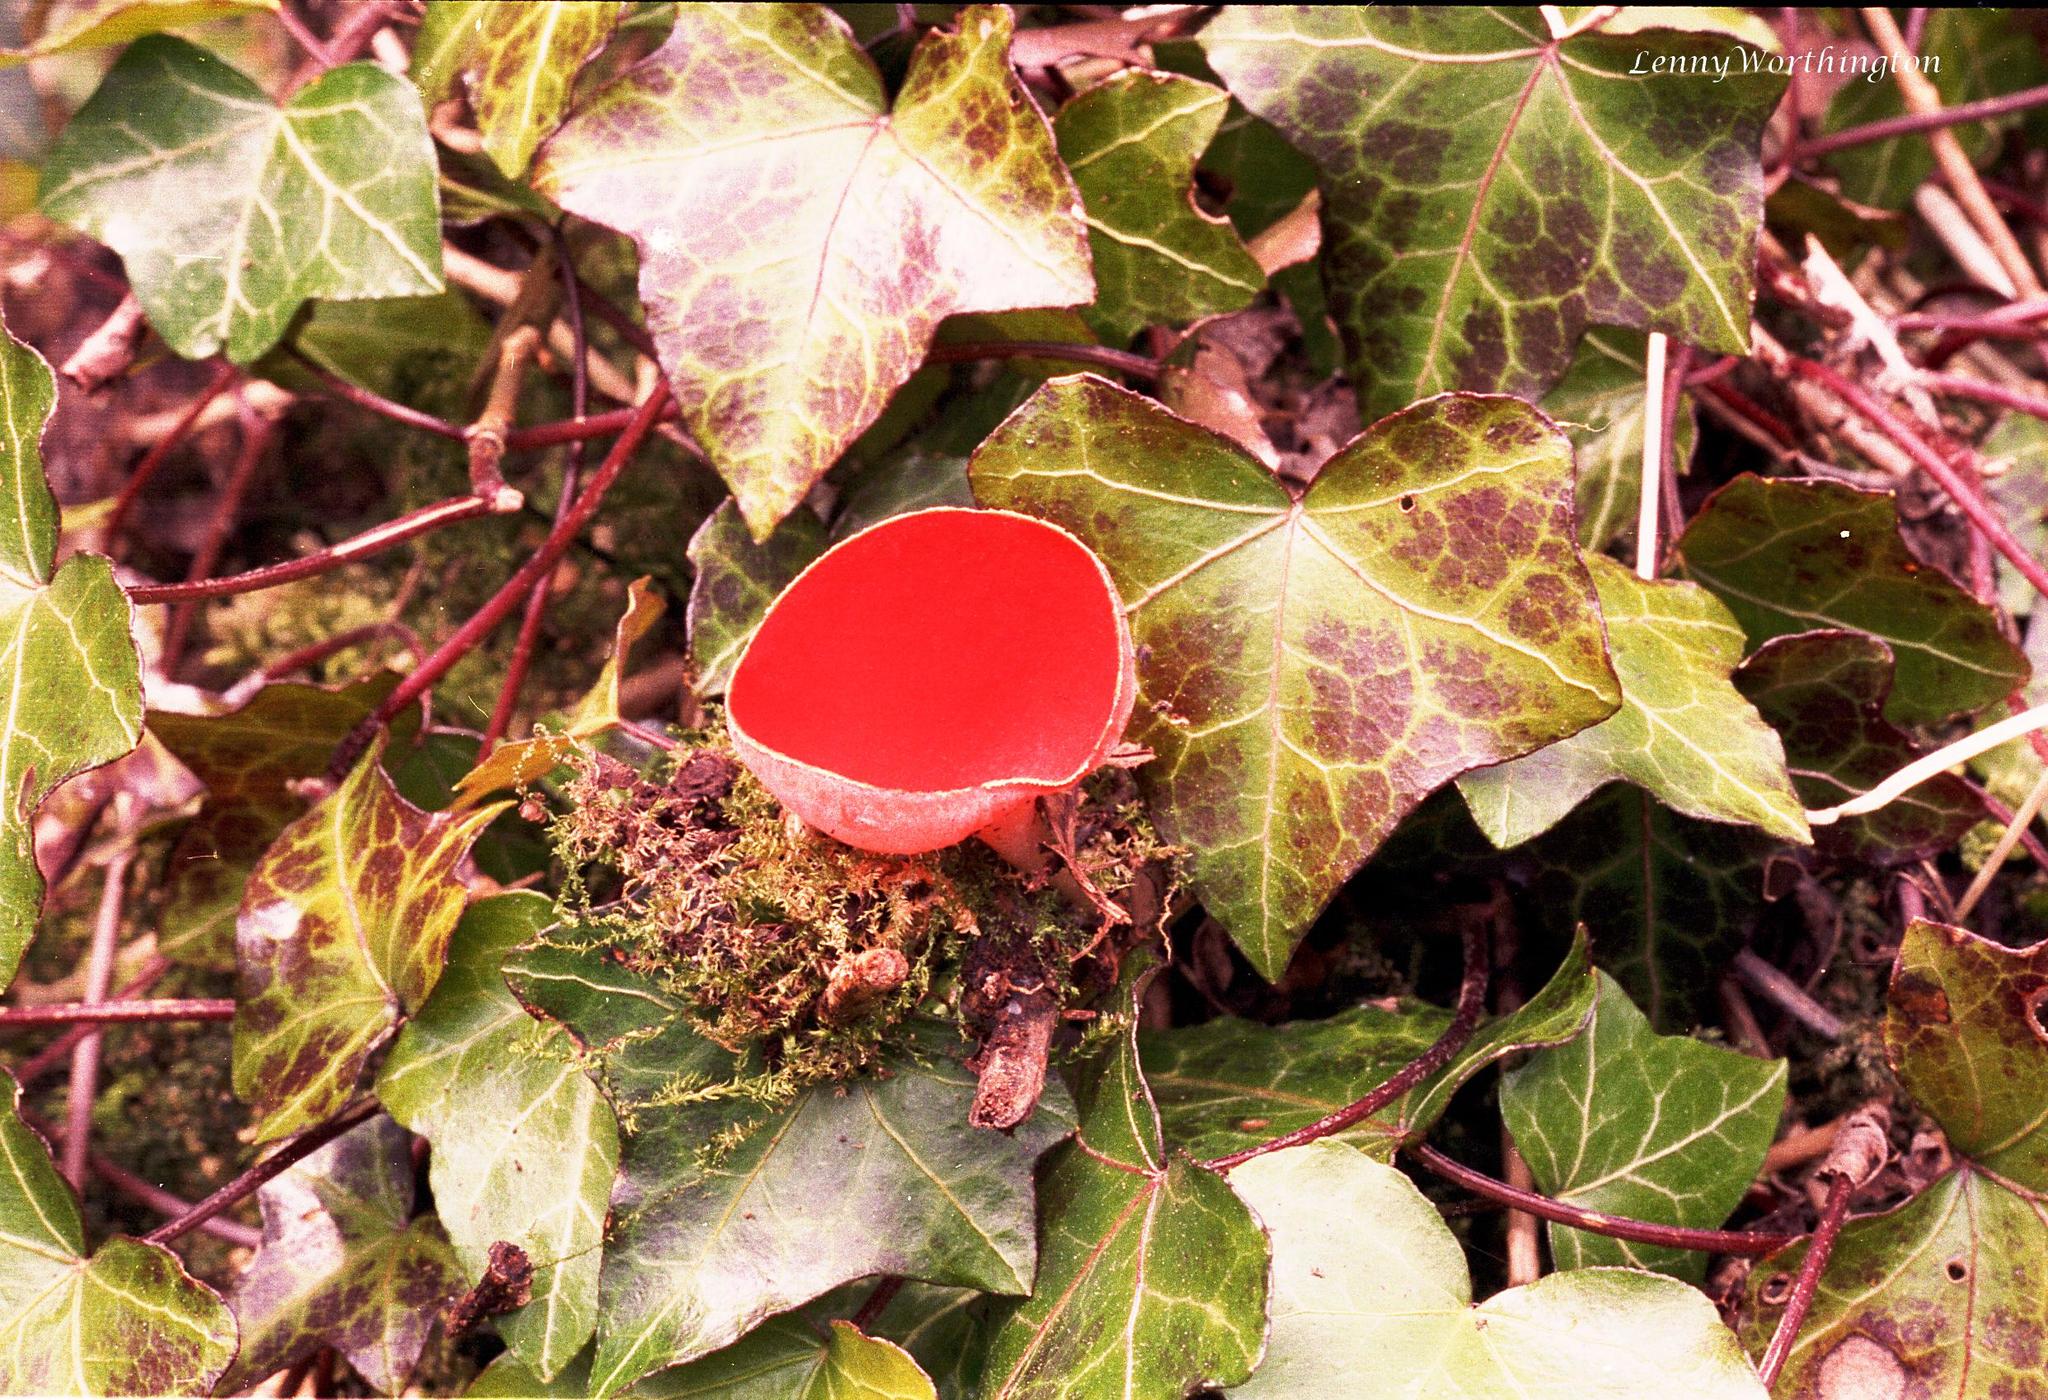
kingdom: Fungi
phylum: Ascomycota
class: Pezizomycetes
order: Pezizales
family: Sarcoscyphaceae
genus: Sarcoscypha
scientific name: Sarcoscypha
